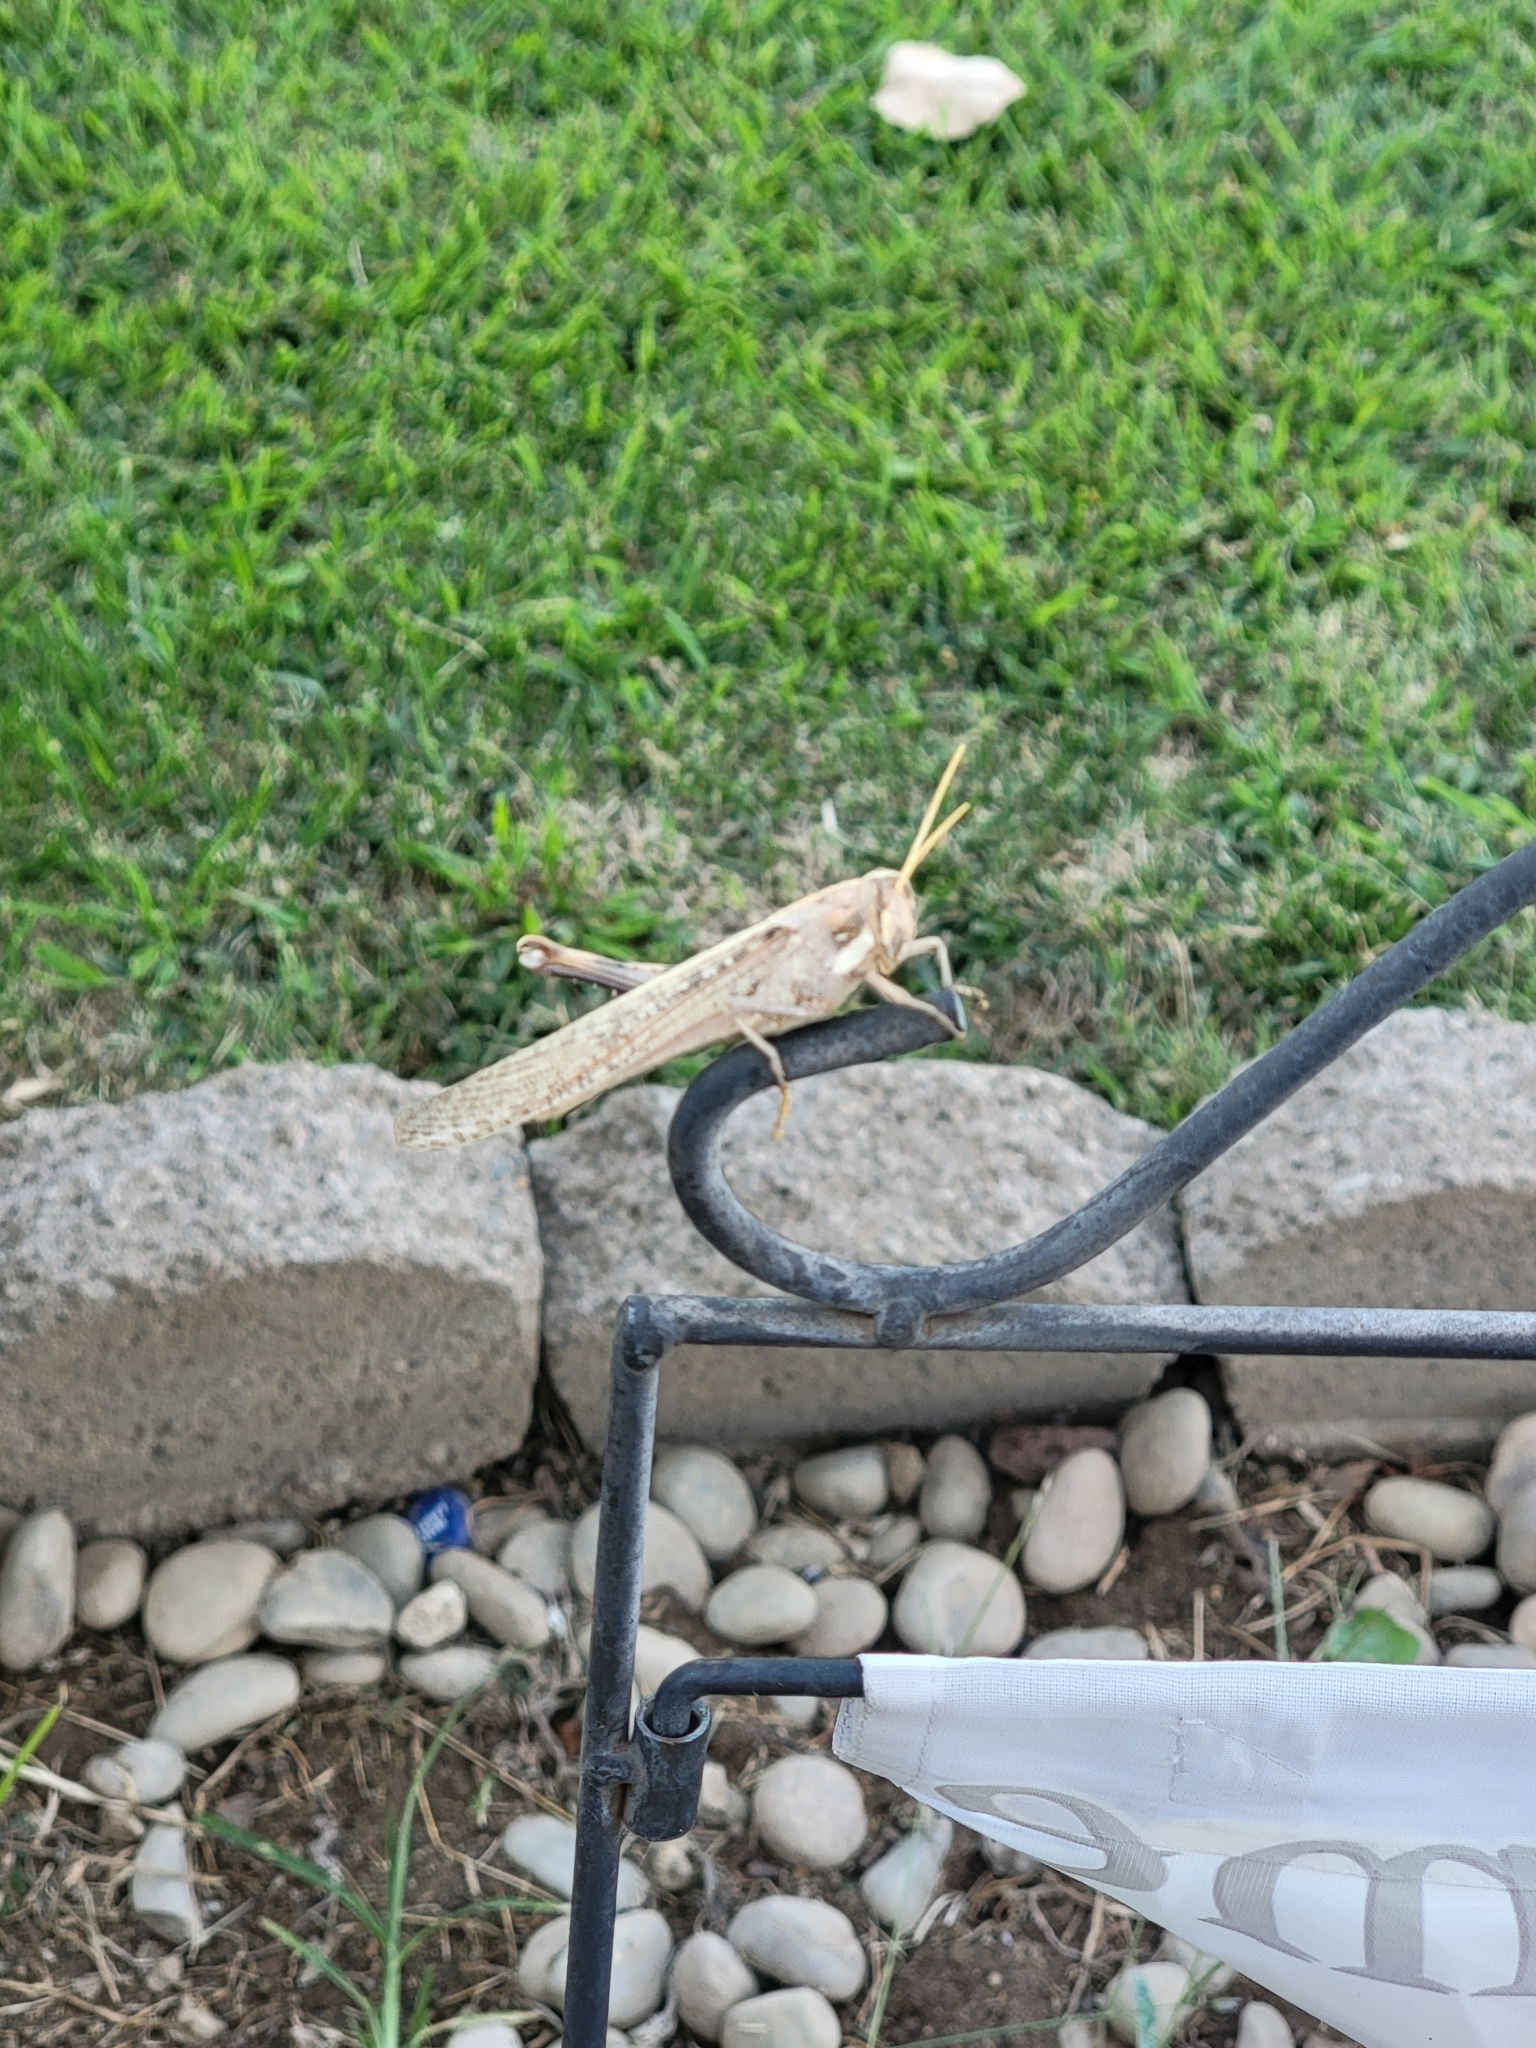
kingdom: Animalia
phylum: Arthropoda
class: Insecta
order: Orthoptera
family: Acrididae
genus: Schistocerca
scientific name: Schistocerca nitens
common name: Vagrant grasshopper
